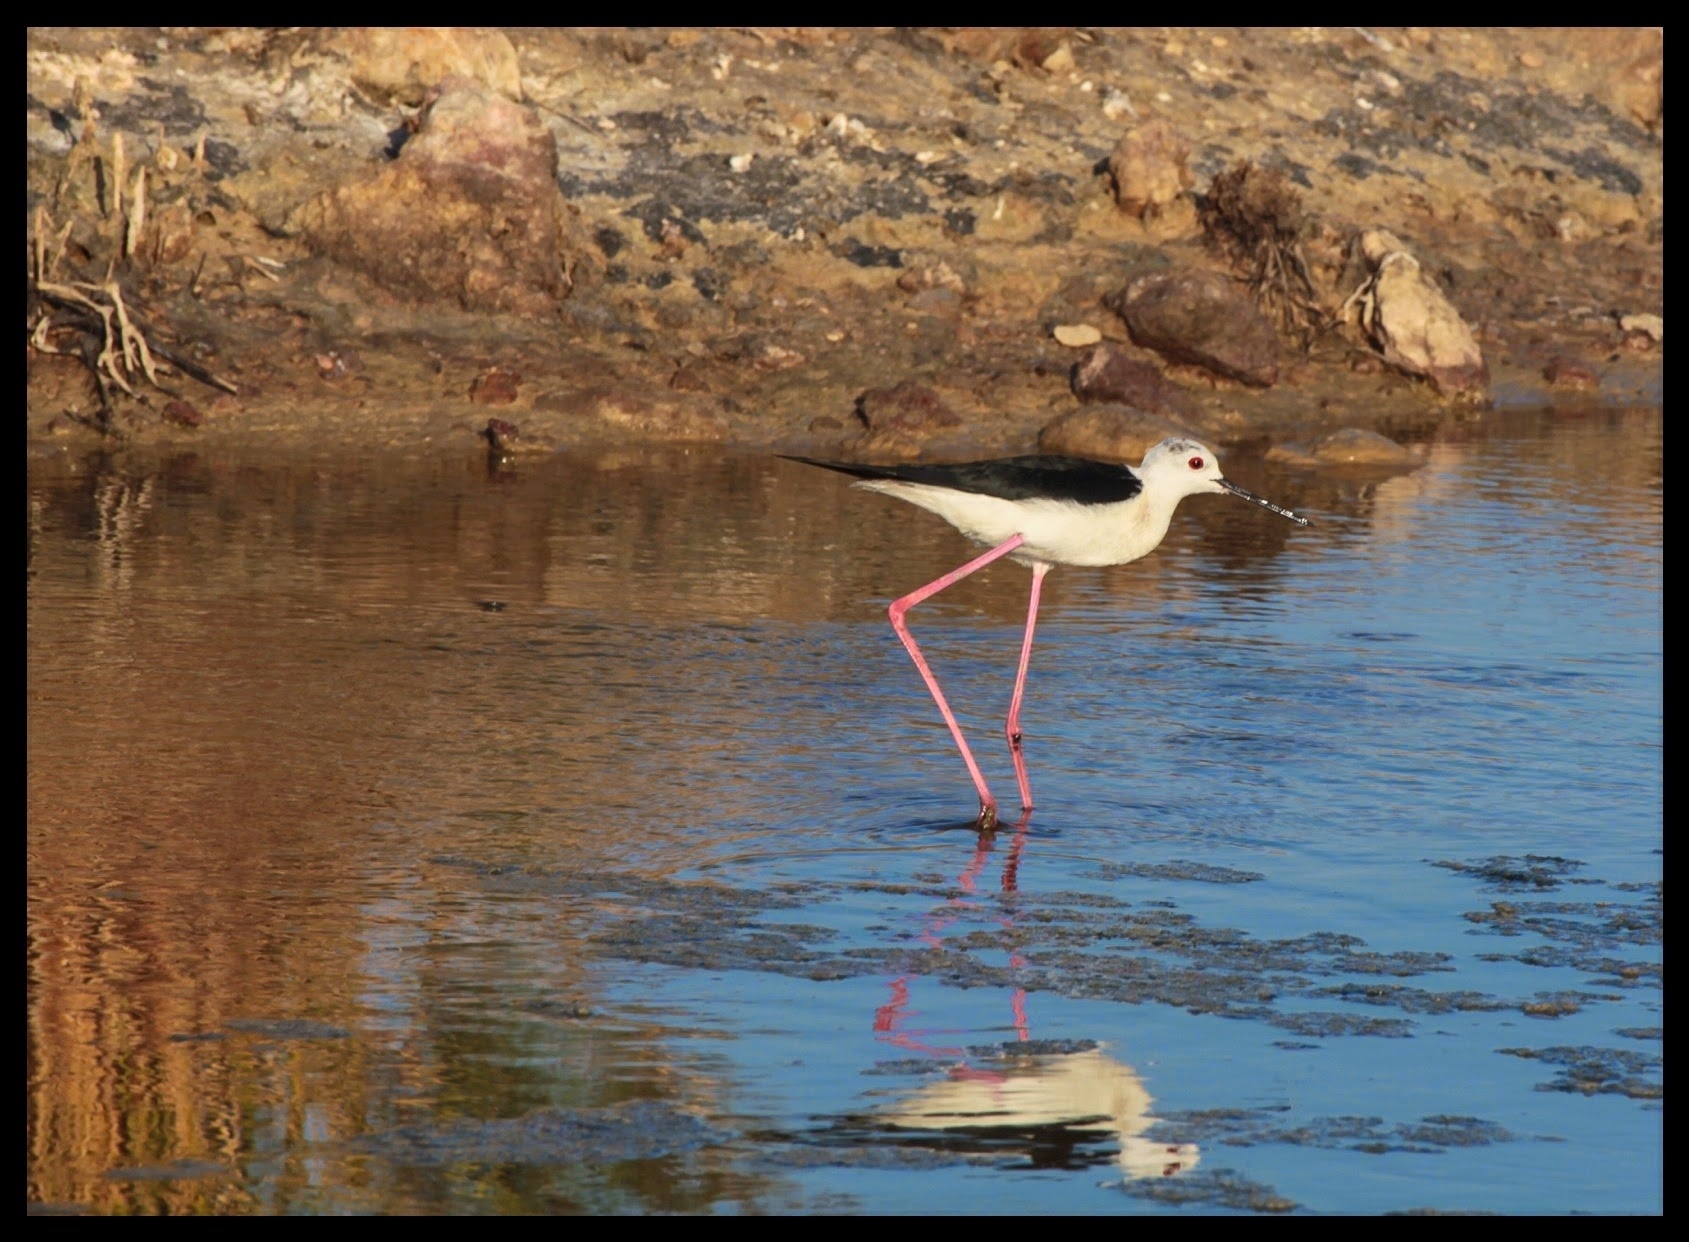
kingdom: Animalia
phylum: Chordata
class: Aves
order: Charadriiformes
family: Recurvirostridae
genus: Himantopus
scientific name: Himantopus himantopus
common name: Black-winged stilt
